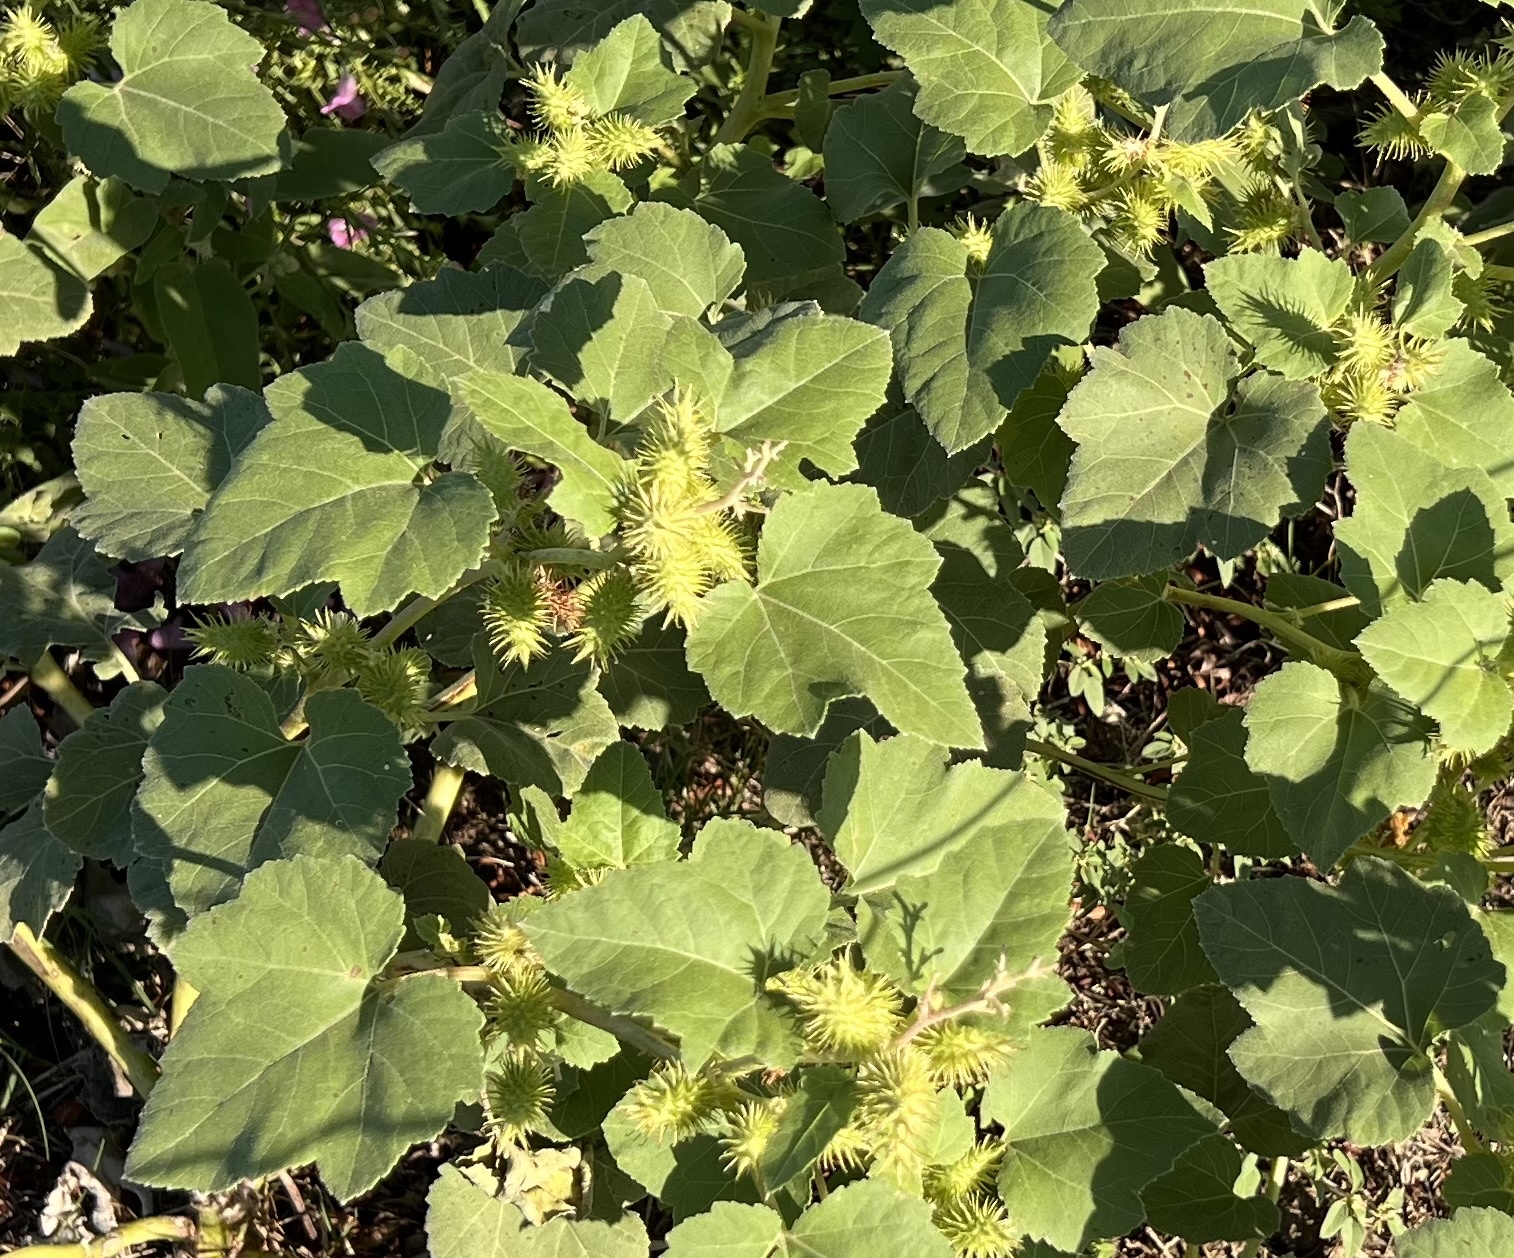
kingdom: Plantae
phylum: Tracheophyta
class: Magnoliopsida
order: Asterales
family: Asteraceae
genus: Xanthium
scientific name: Xanthium strumarium
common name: Rough cocklebur
